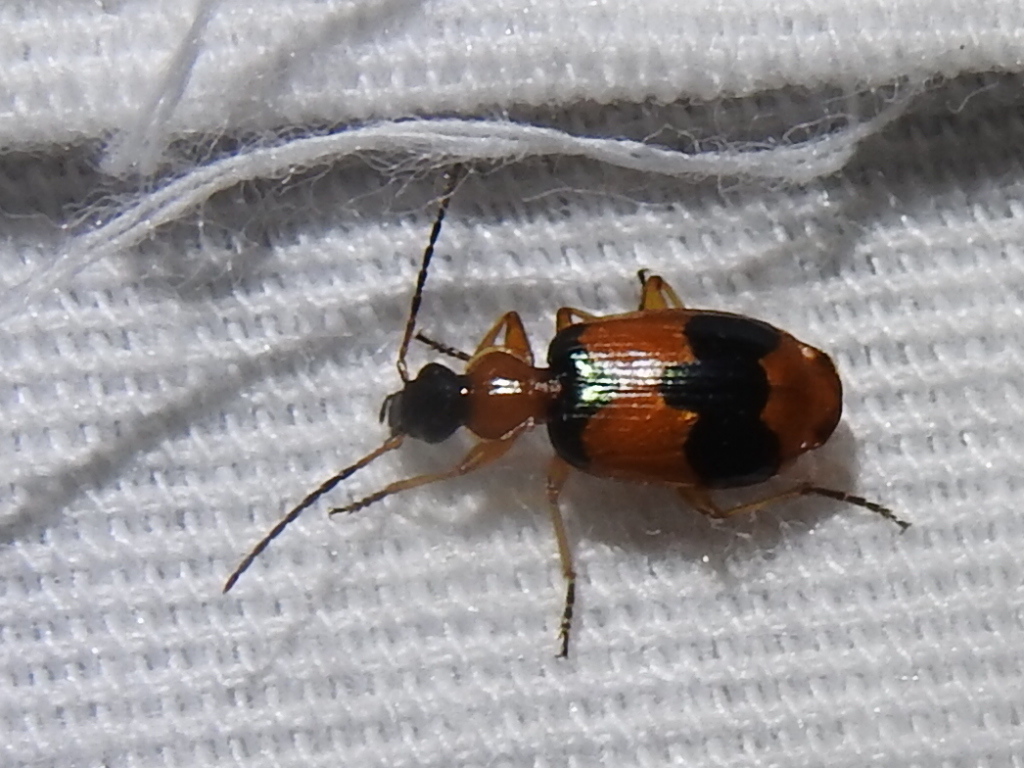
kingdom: Animalia
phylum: Arthropoda
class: Insecta
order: Coleoptera
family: Carabidae
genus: Lebia
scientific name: Lebia pulchella
